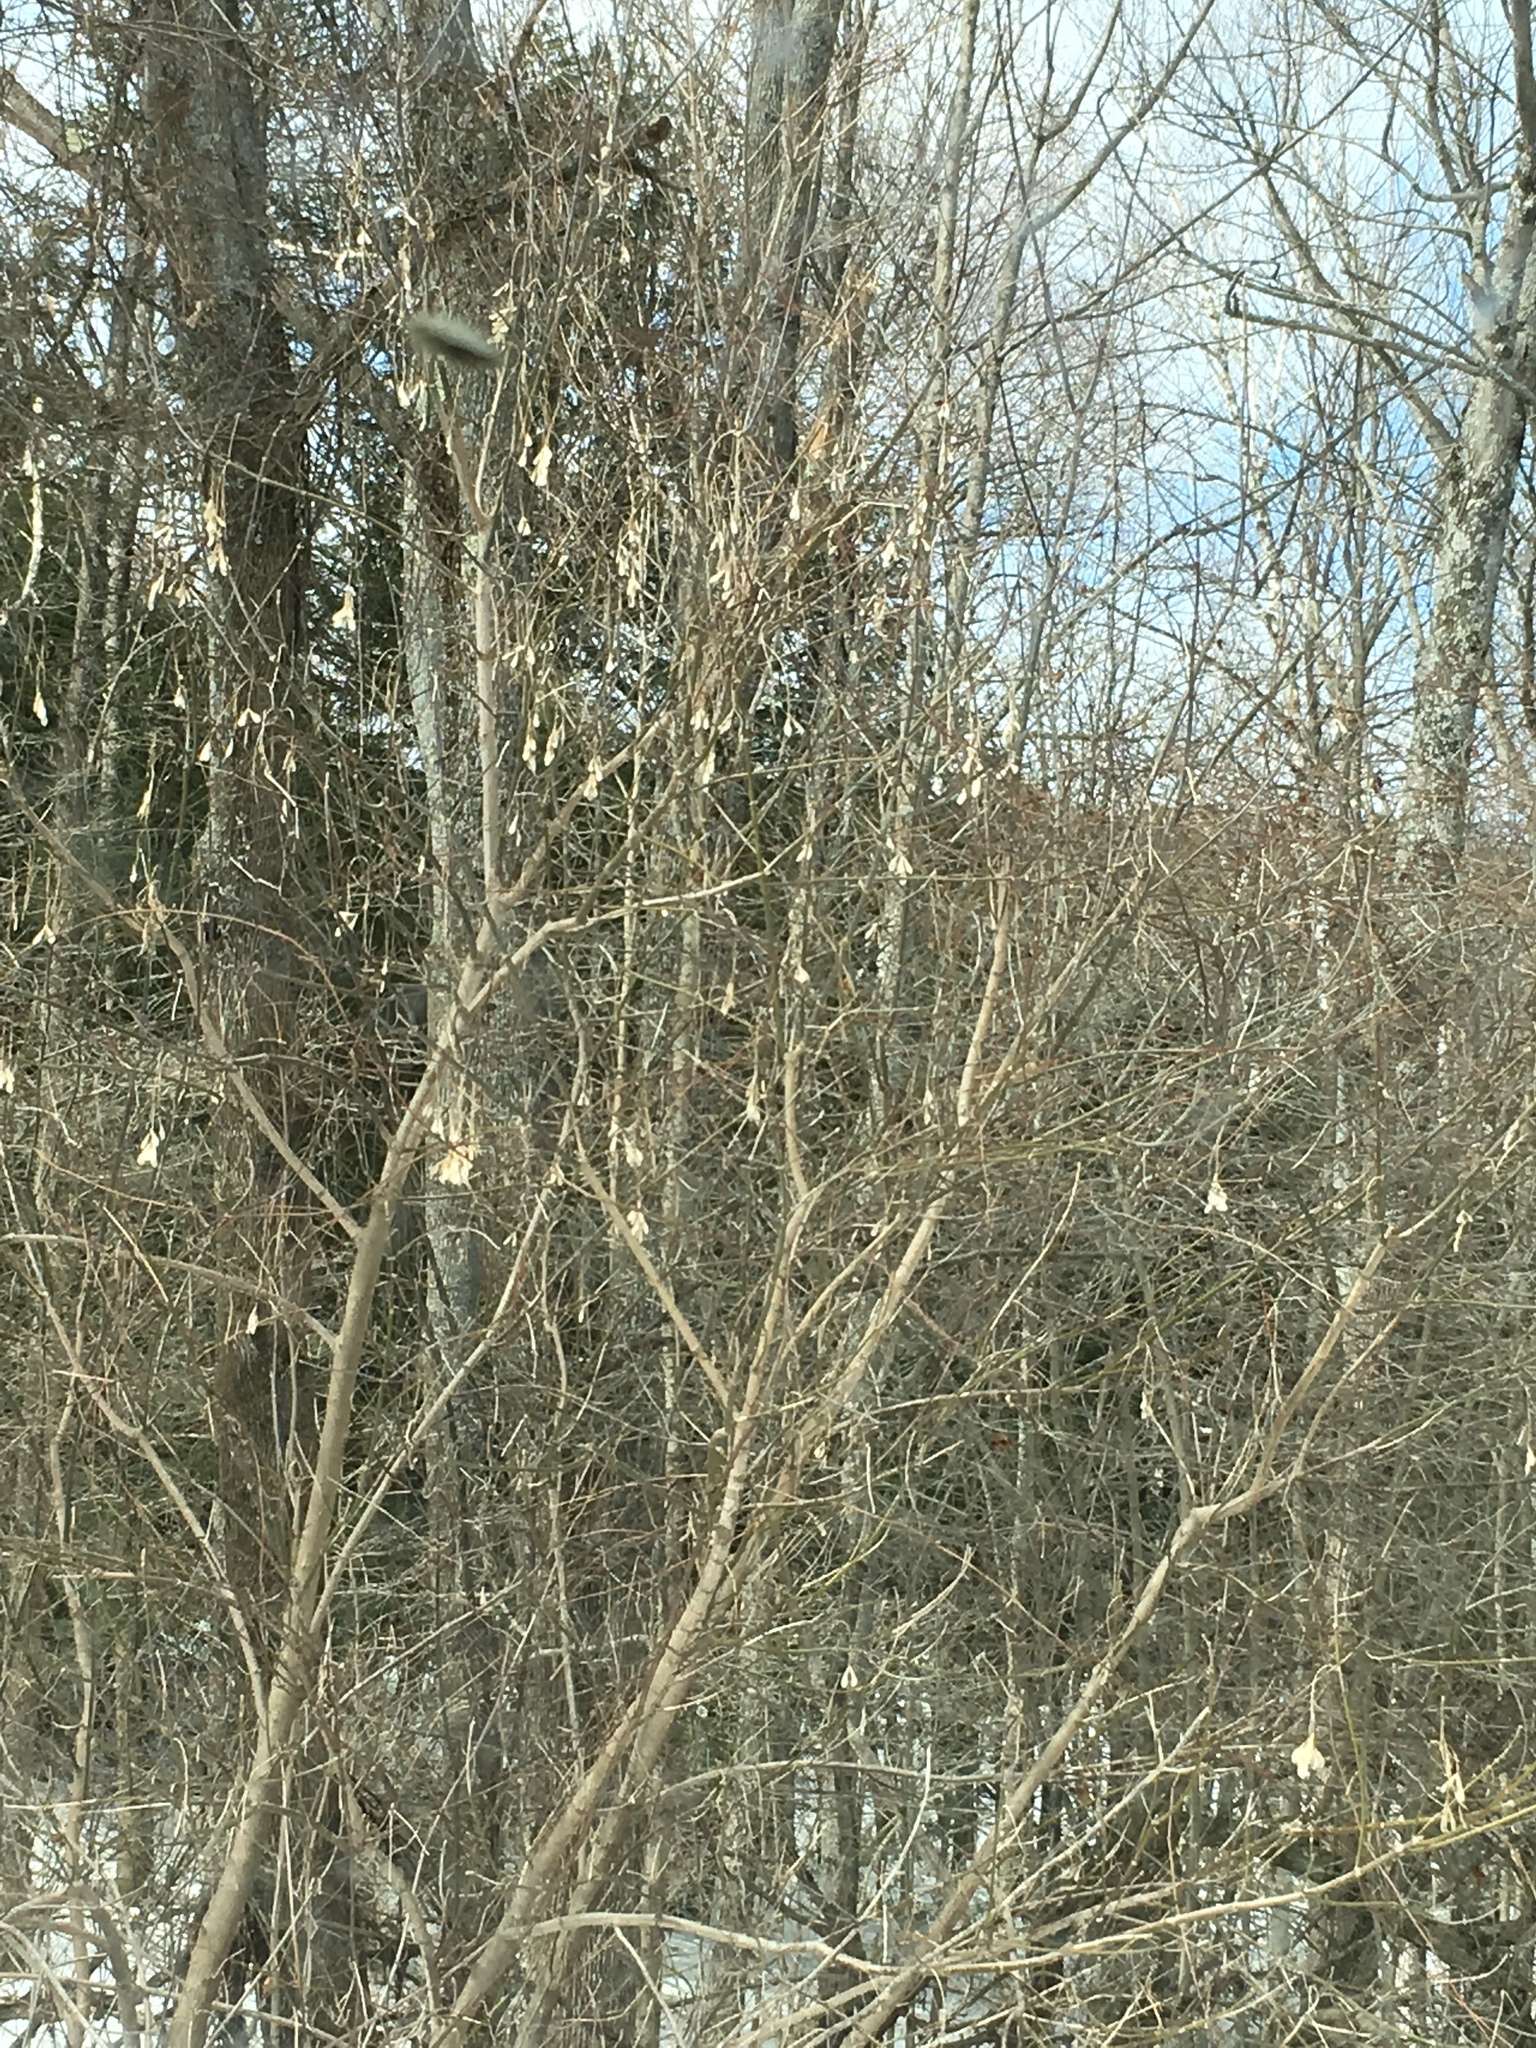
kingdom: Plantae
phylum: Tracheophyta
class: Magnoliopsida
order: Sapindales
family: Sapindaceae
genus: Acer
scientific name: Acer negundo
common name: Ashleaf maple
